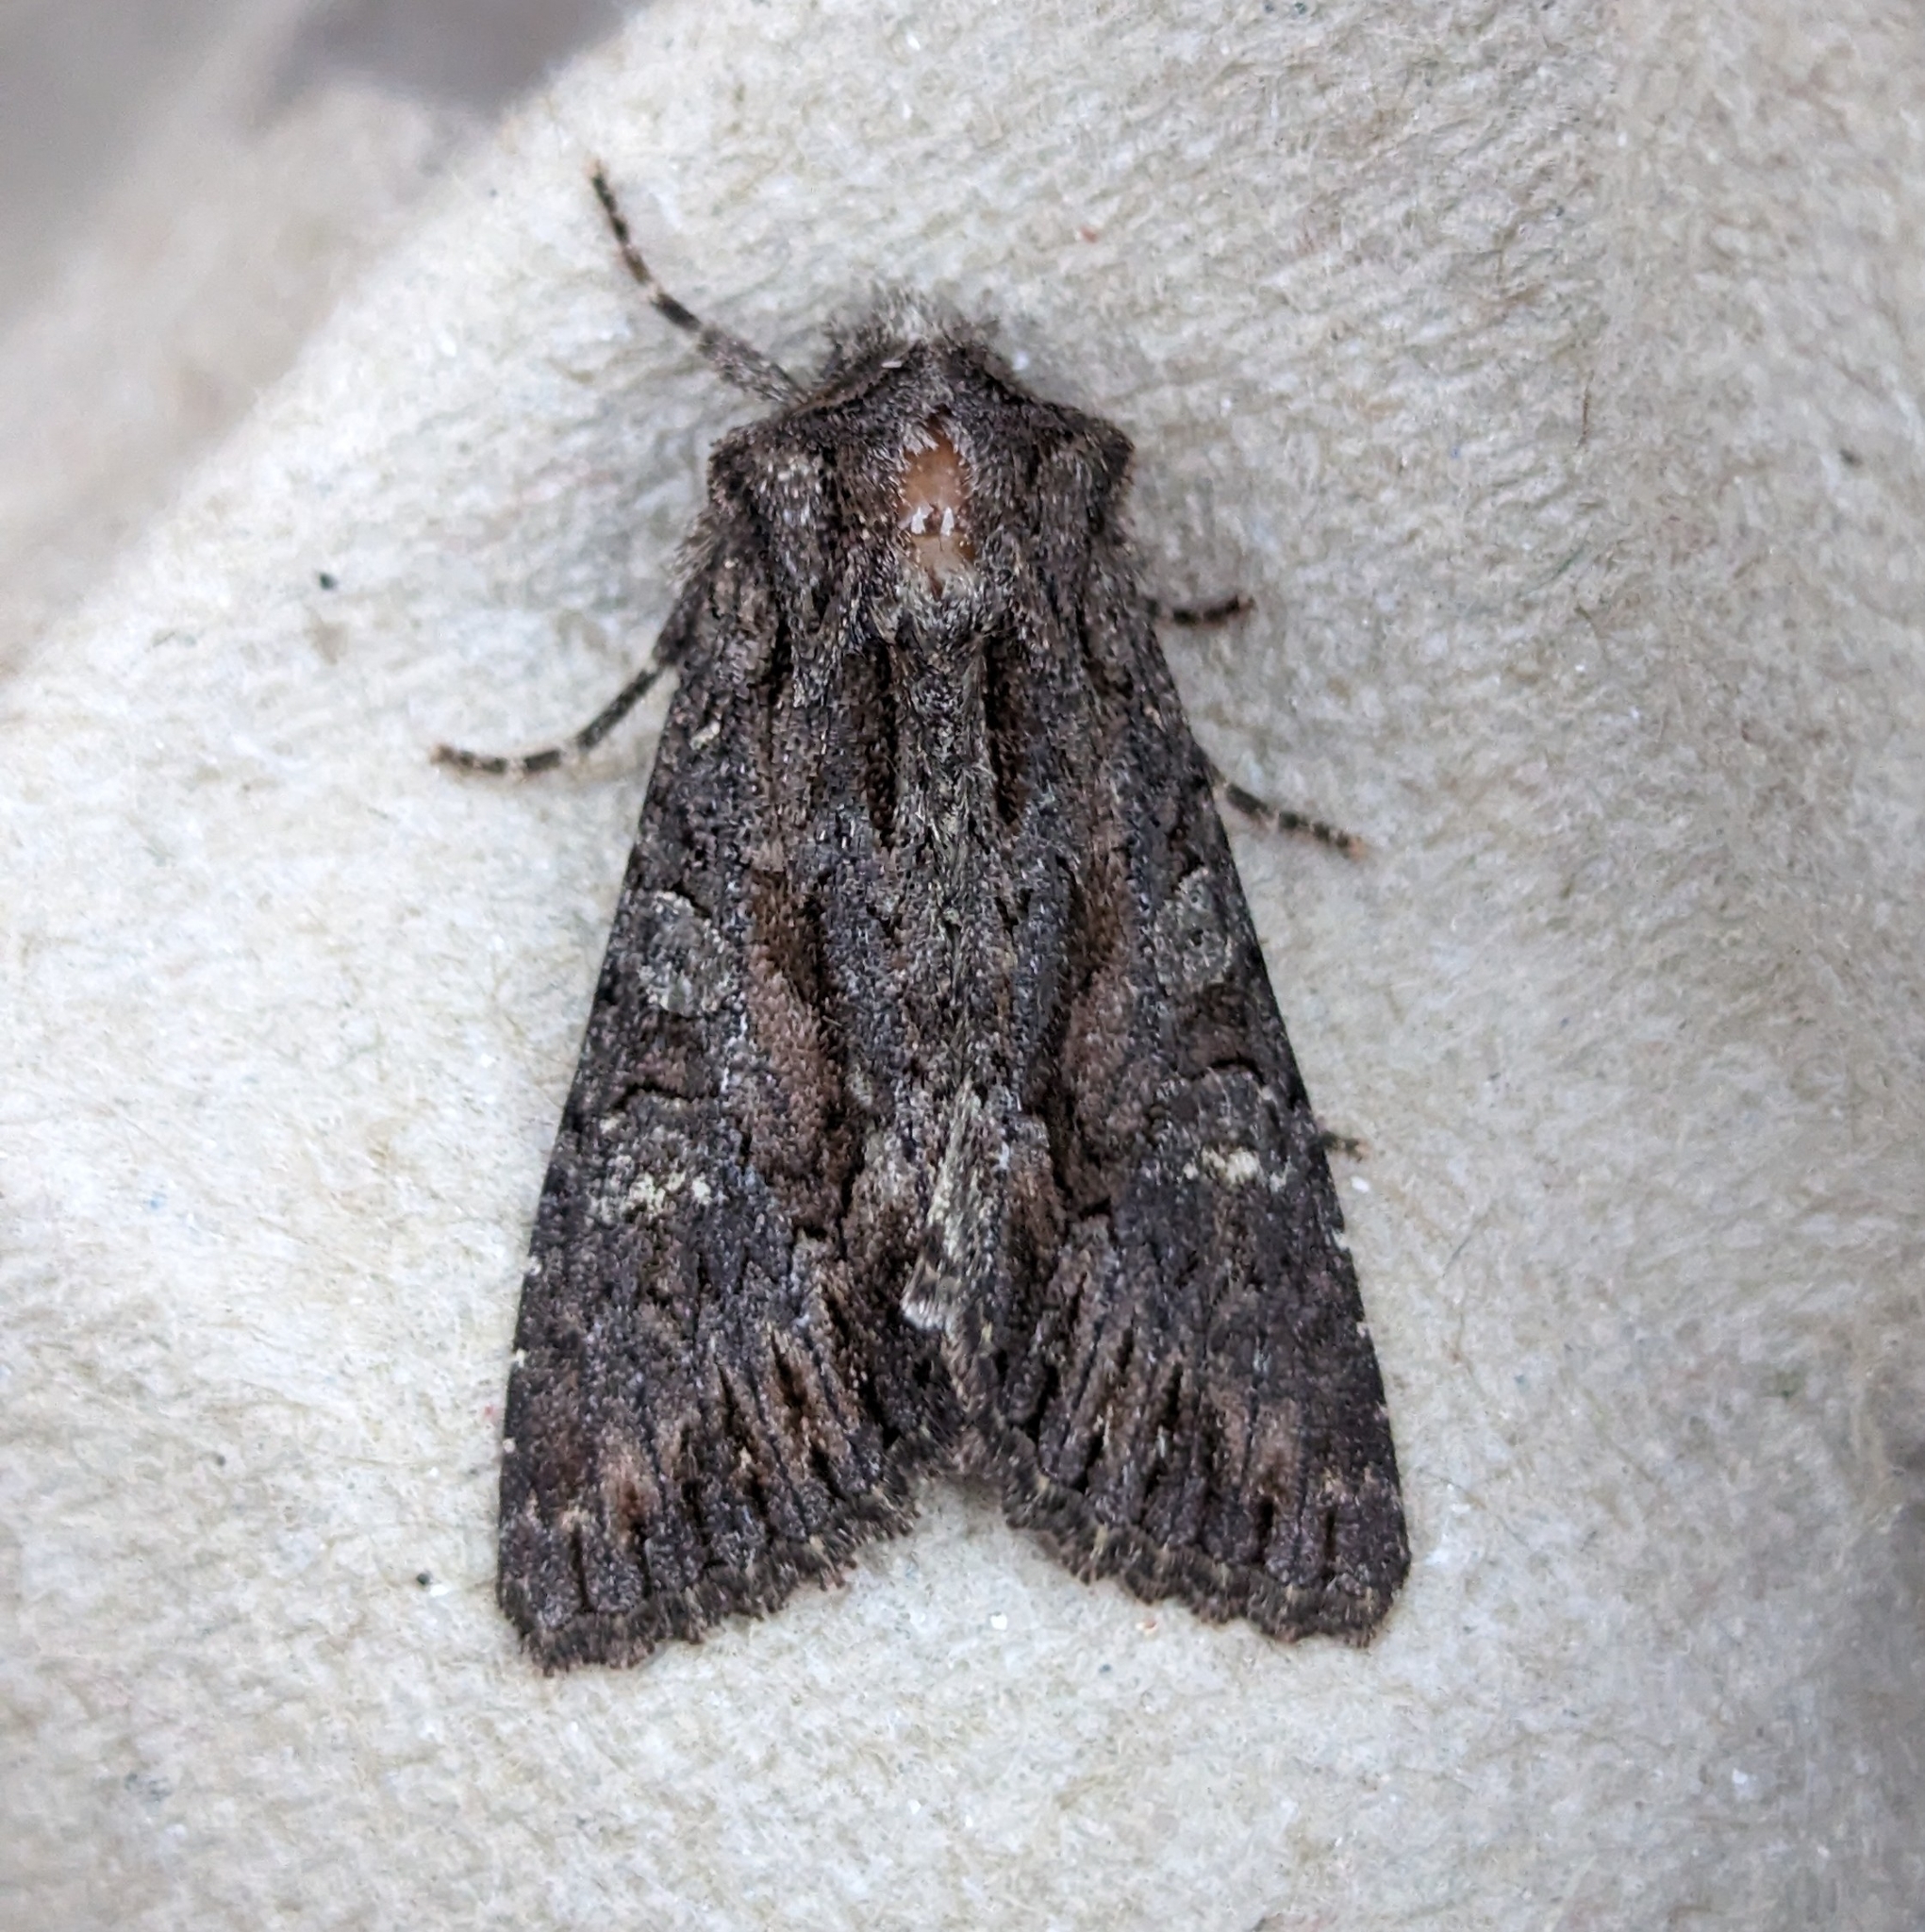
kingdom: Animalia
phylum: Arthropoda
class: Insecta
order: Lepidoptera
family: Noctuidae
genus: Fishia
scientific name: Fishia discors
